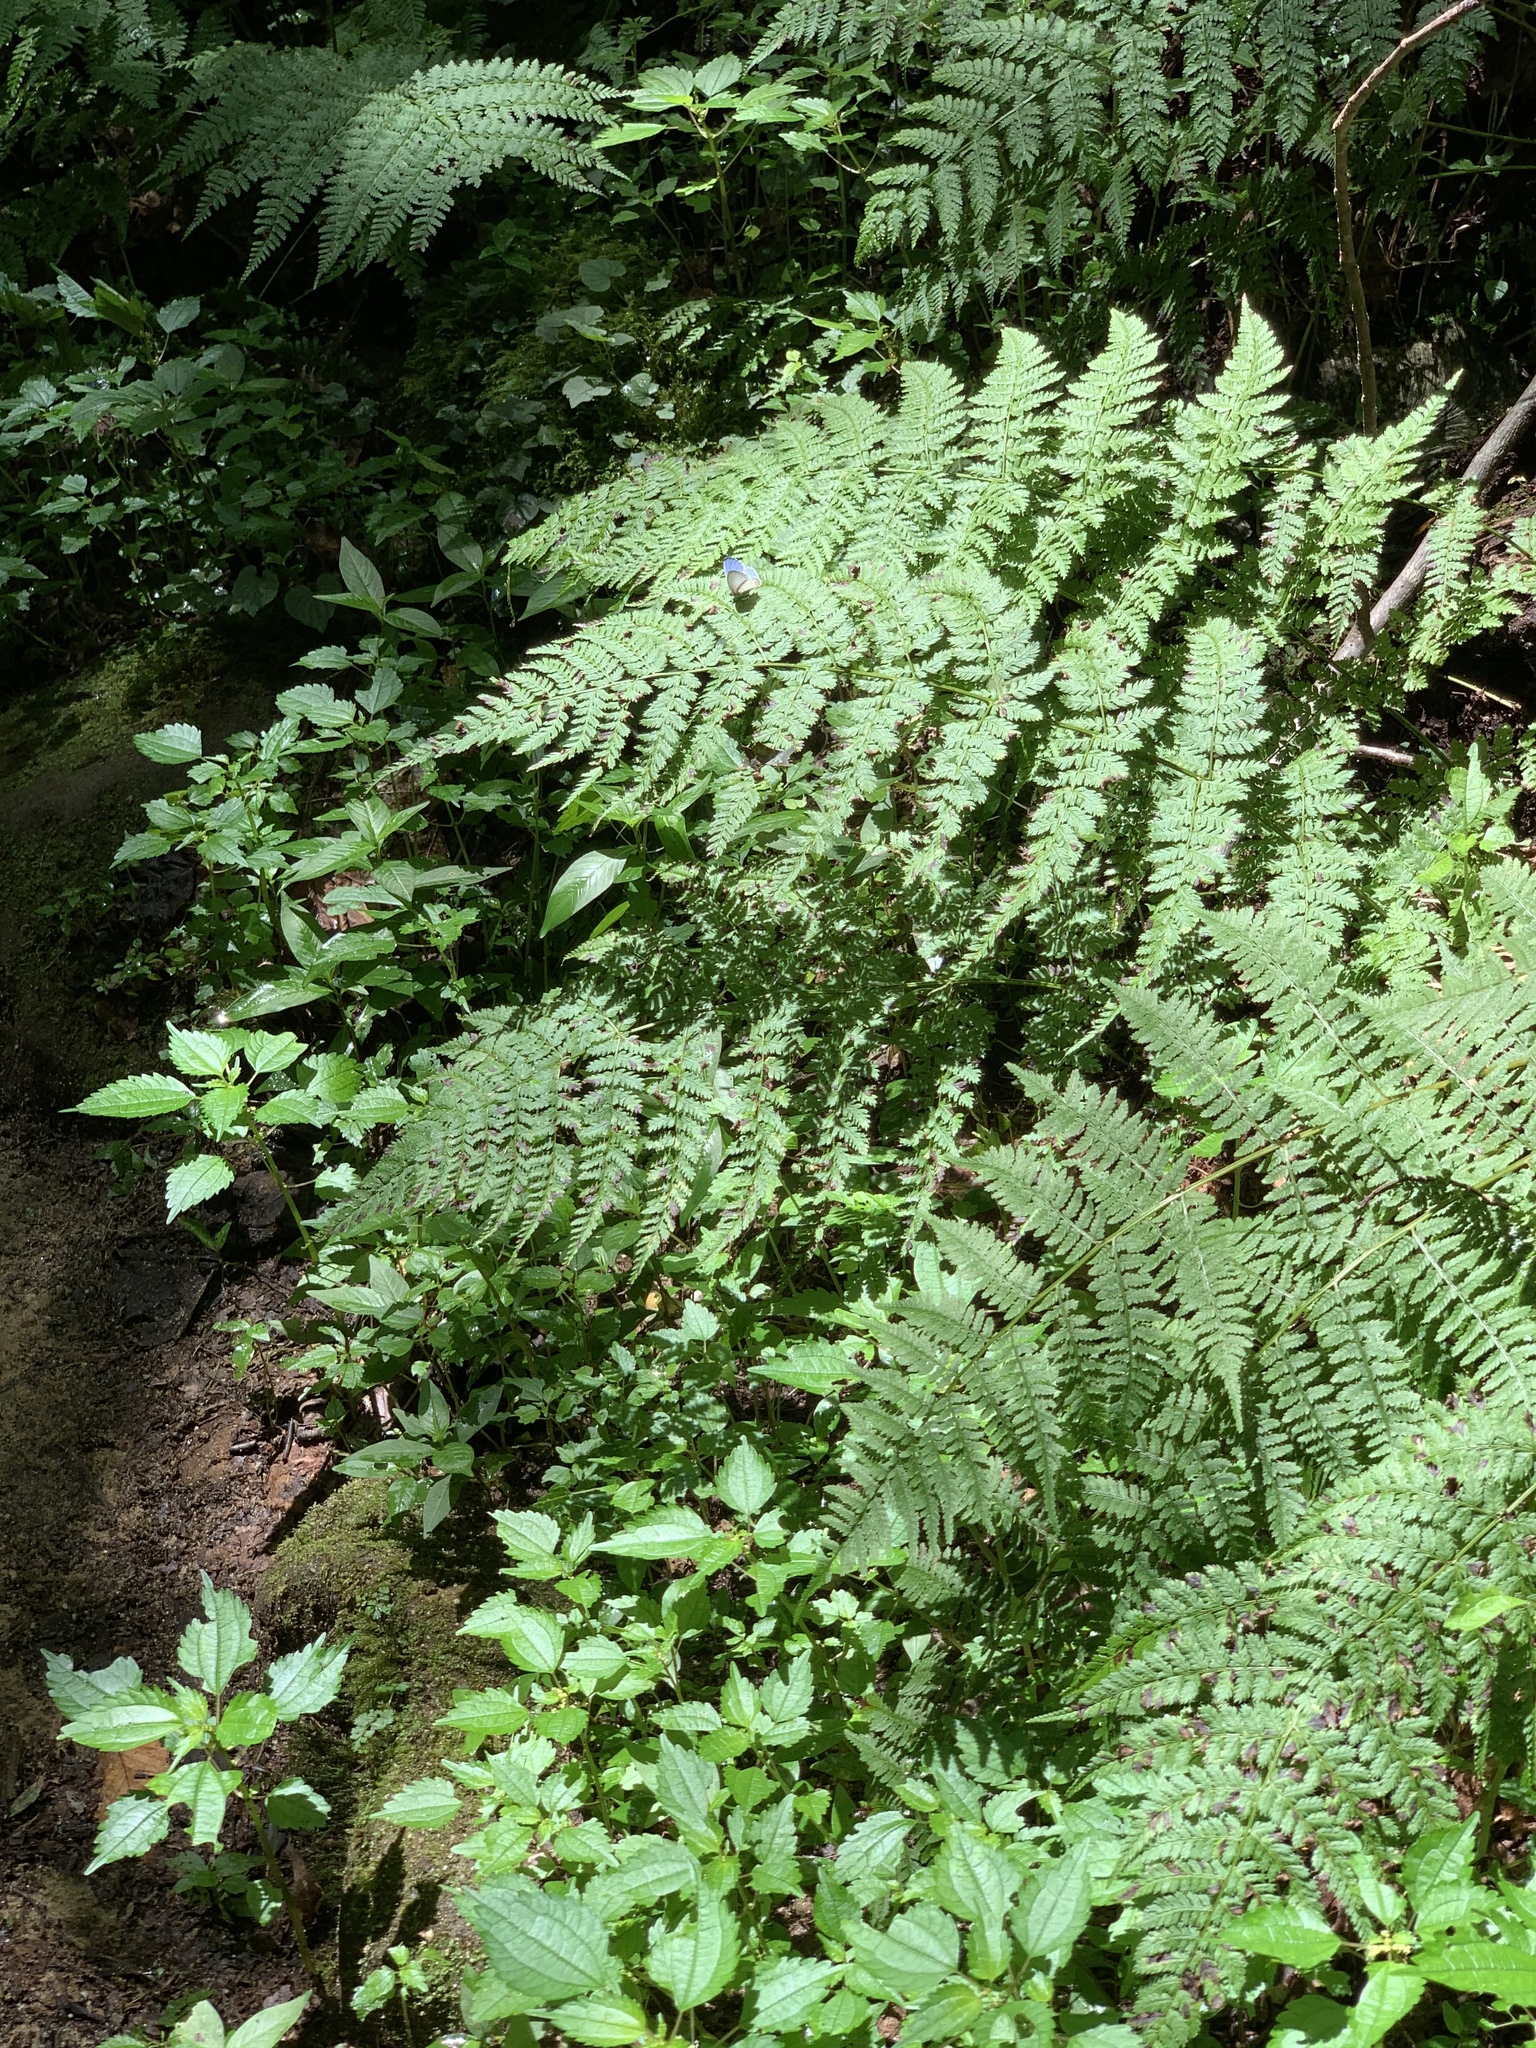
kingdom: Animalia
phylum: Arthropoda
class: Insecta
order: Lepidoptera
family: Lycaenidae
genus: Cyaniris
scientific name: Cyaniris neglecta
